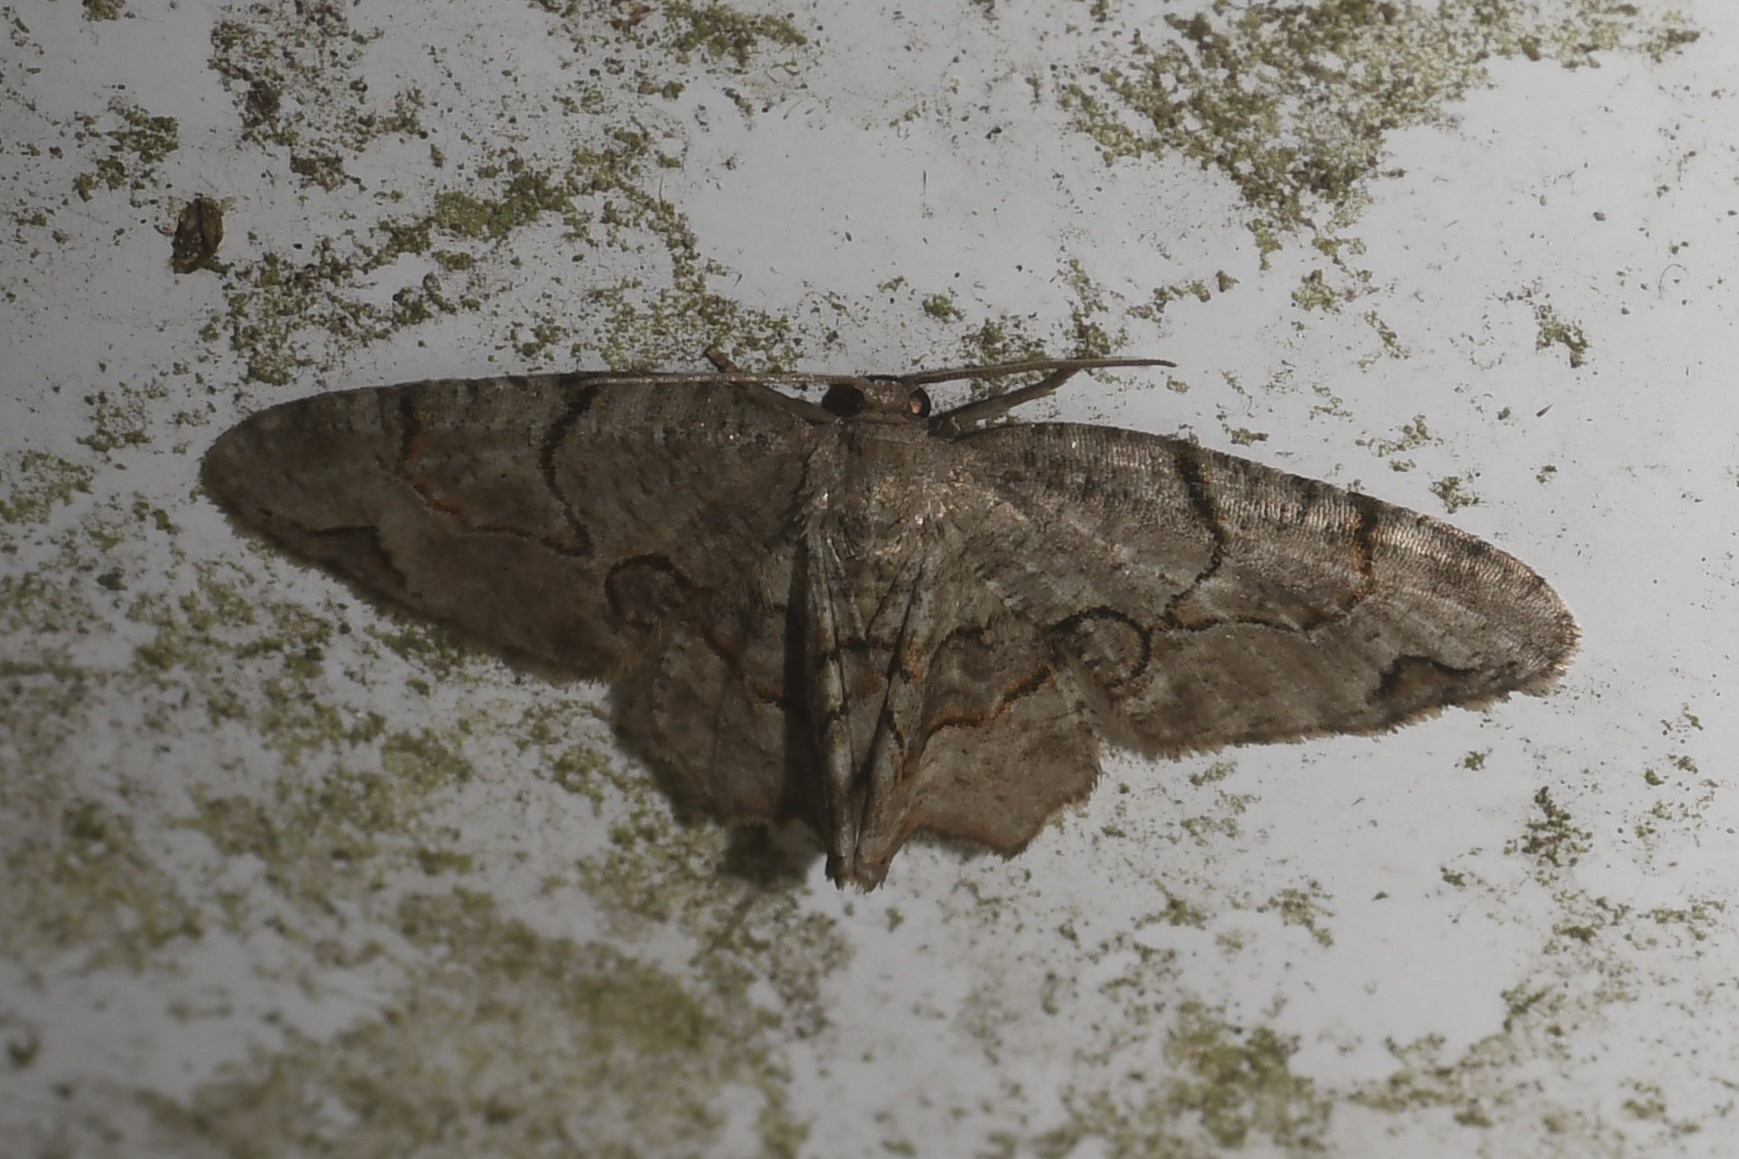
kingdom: Animalia
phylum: Arthropoda
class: Insecta
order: Lepidoptera
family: Uraniidae
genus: Epiplema
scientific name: Epiplema Callizzia amorata
